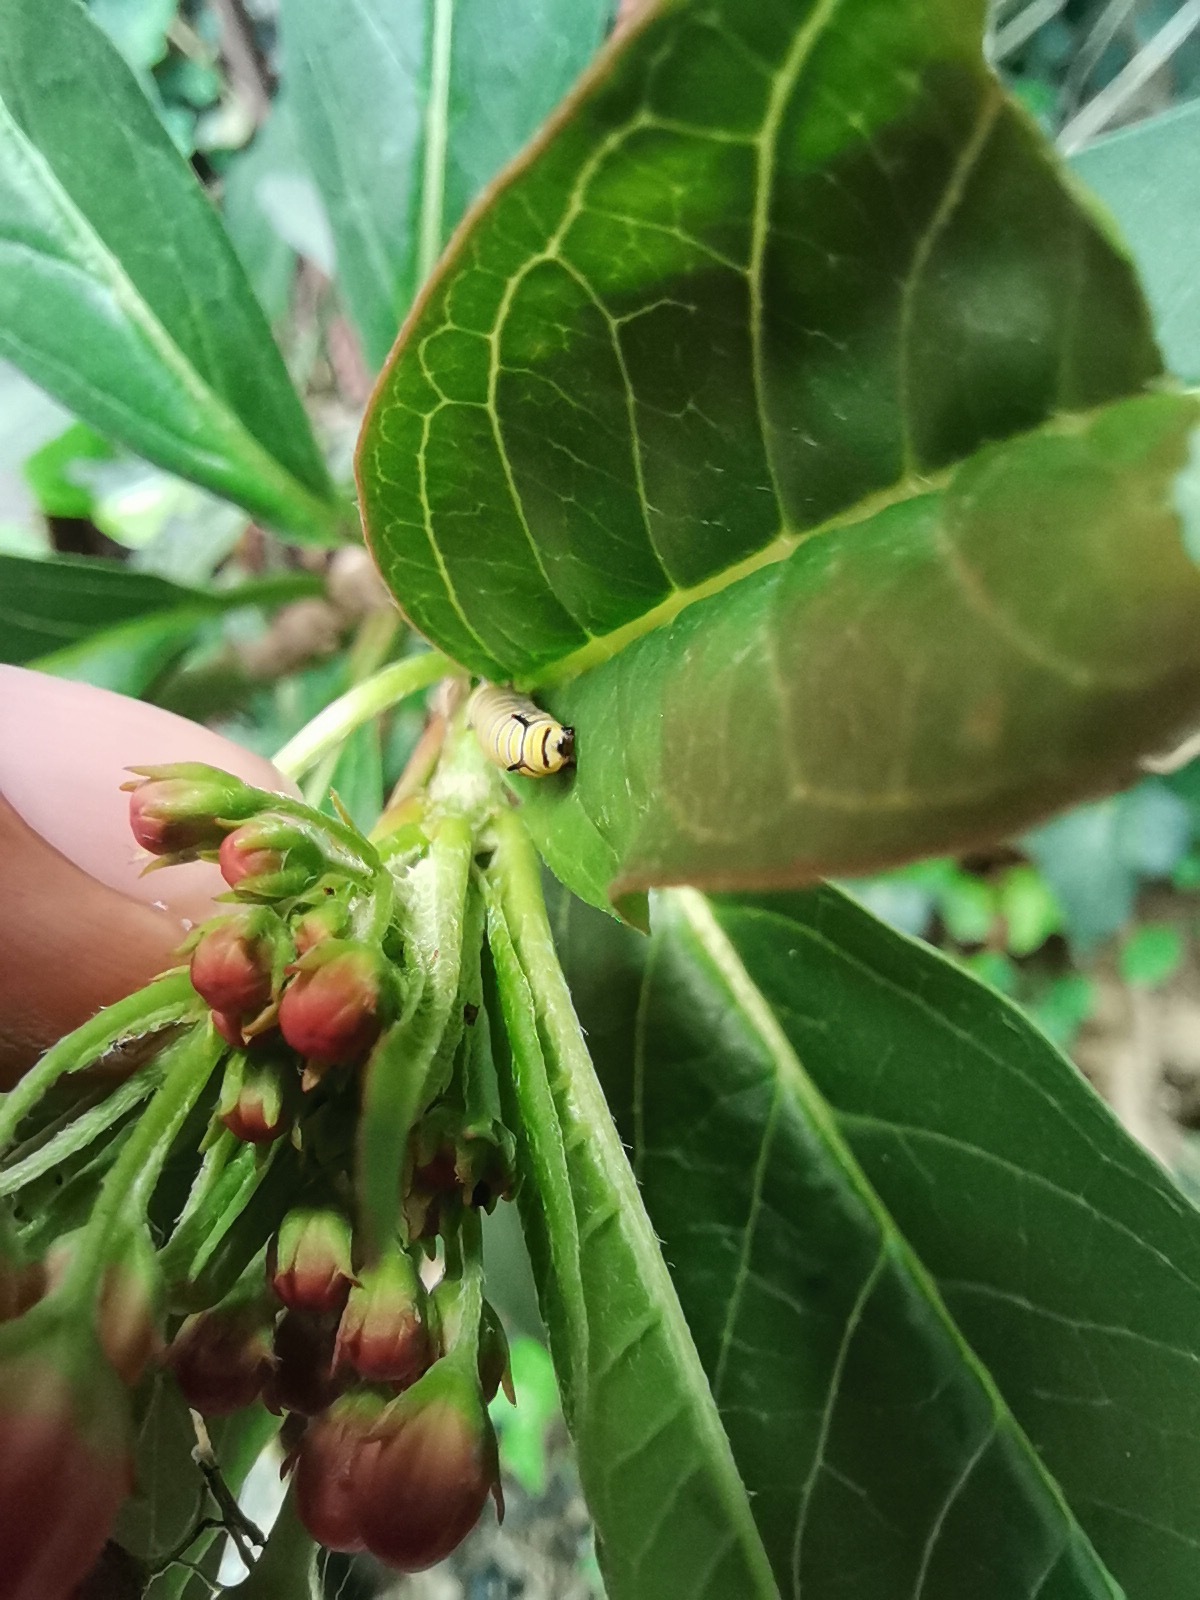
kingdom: Animalia
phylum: Arthropoda
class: Insecta
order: Lepidoptera
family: Nymphalidae
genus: Danaus
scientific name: Danaus plexippus
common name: Monarch
